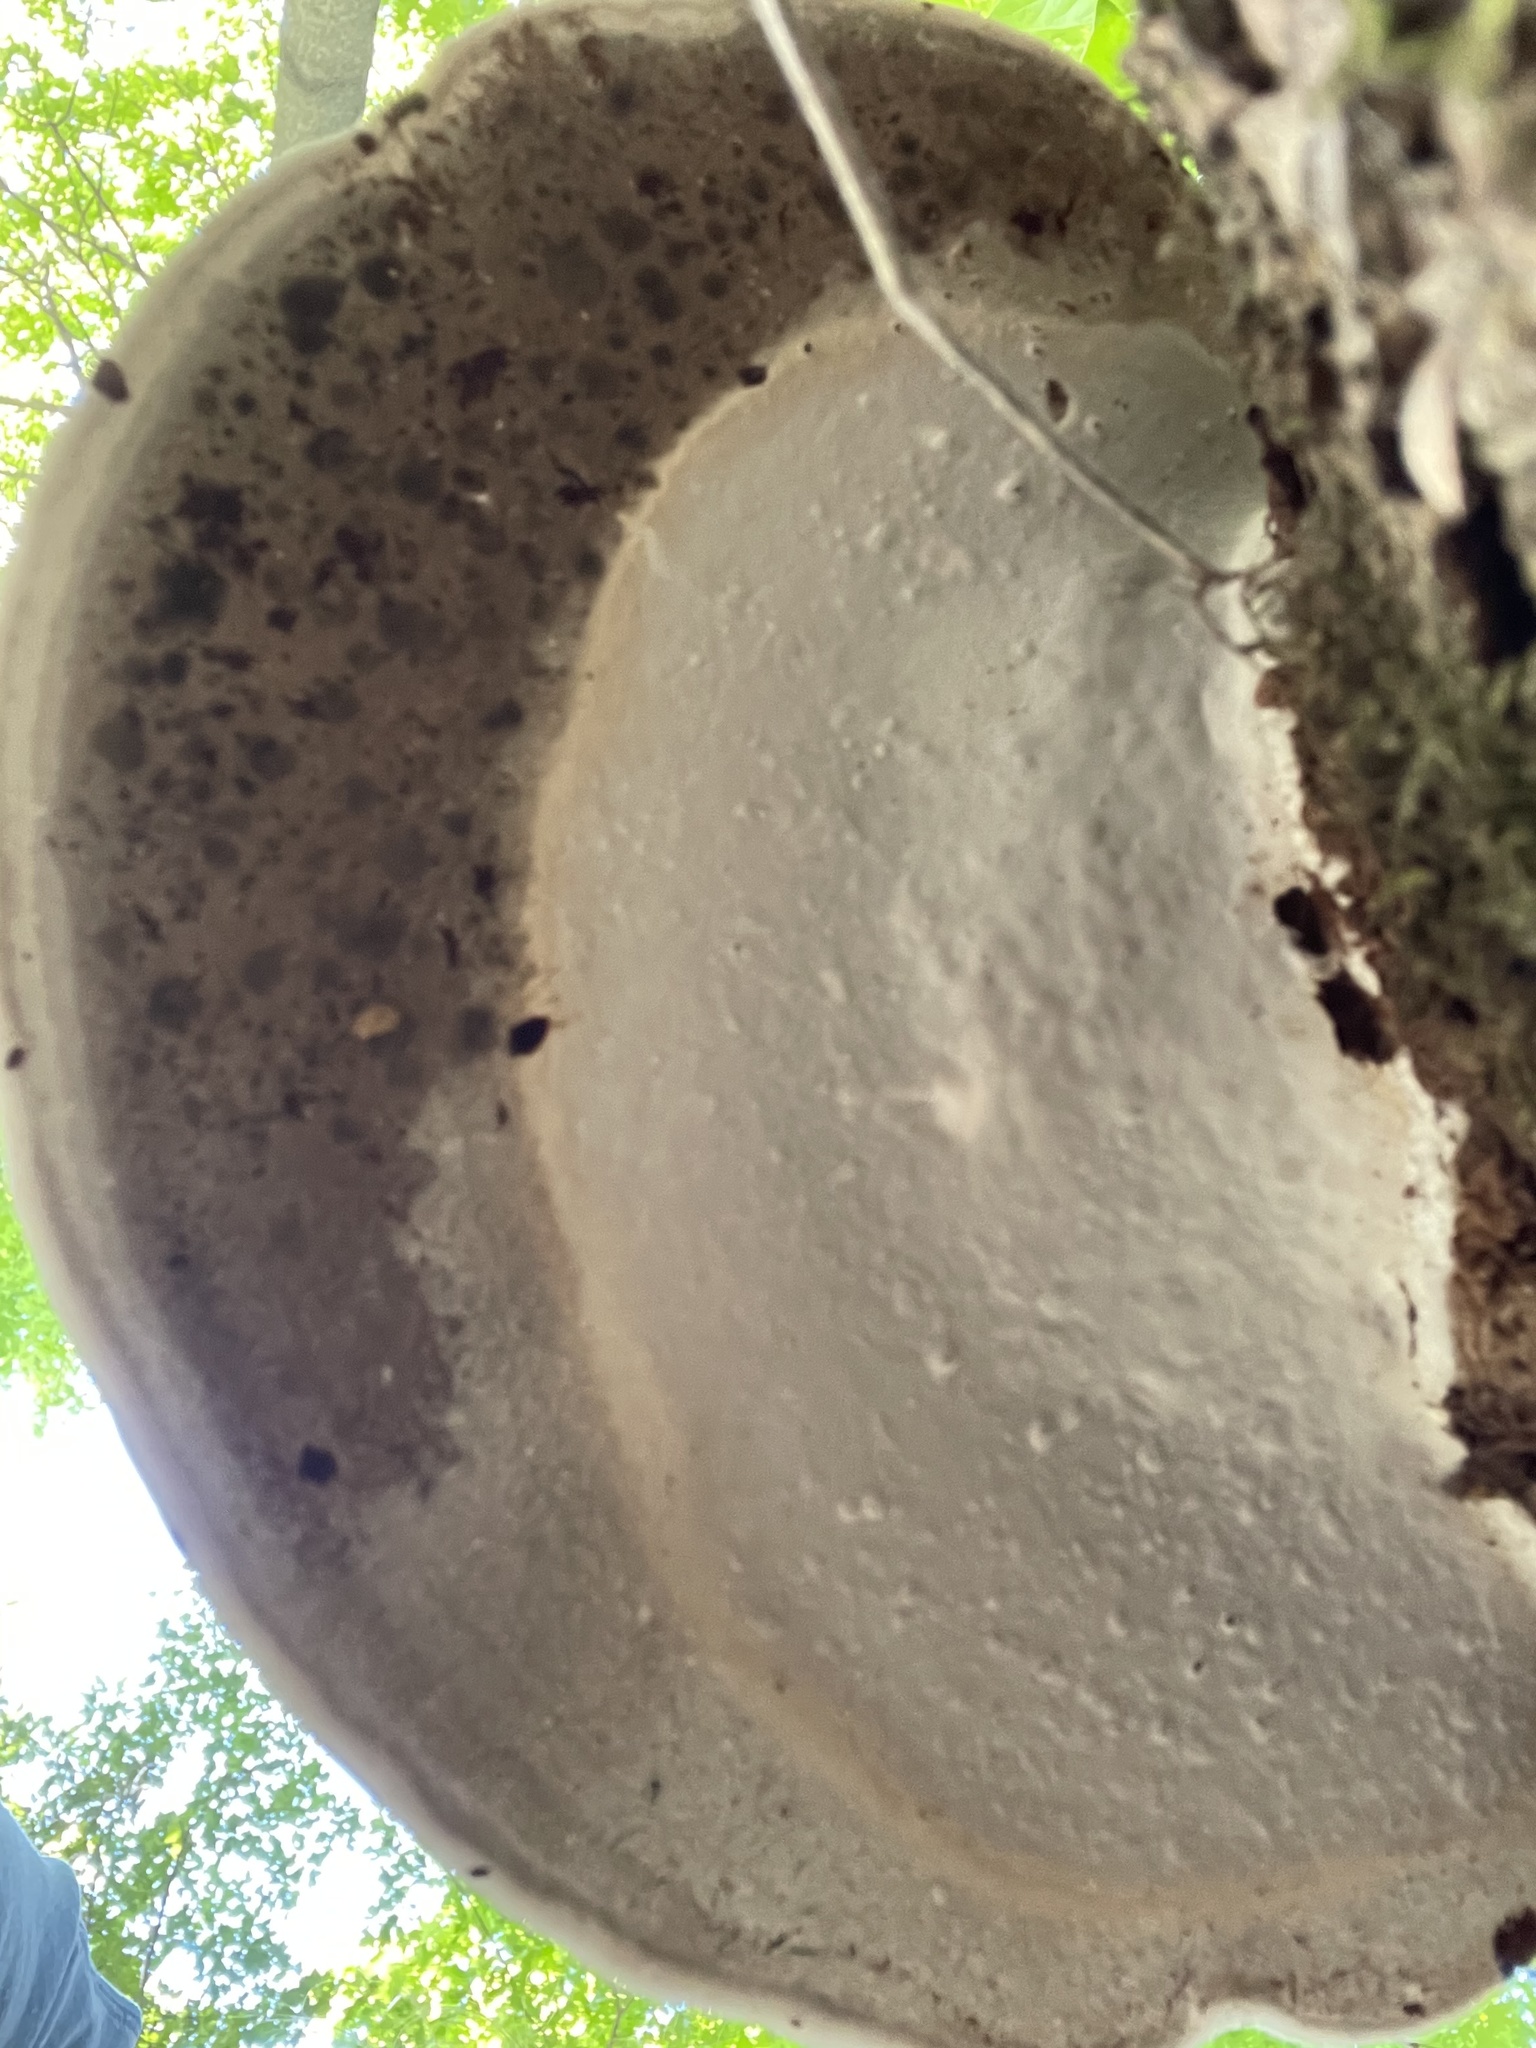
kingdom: Fungi
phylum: Basidiomycota
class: Agaricomycetes
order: Polyporales
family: Polyporaceae
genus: Ganoderma
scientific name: Ganoderma applanatum
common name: Artist's bracket
